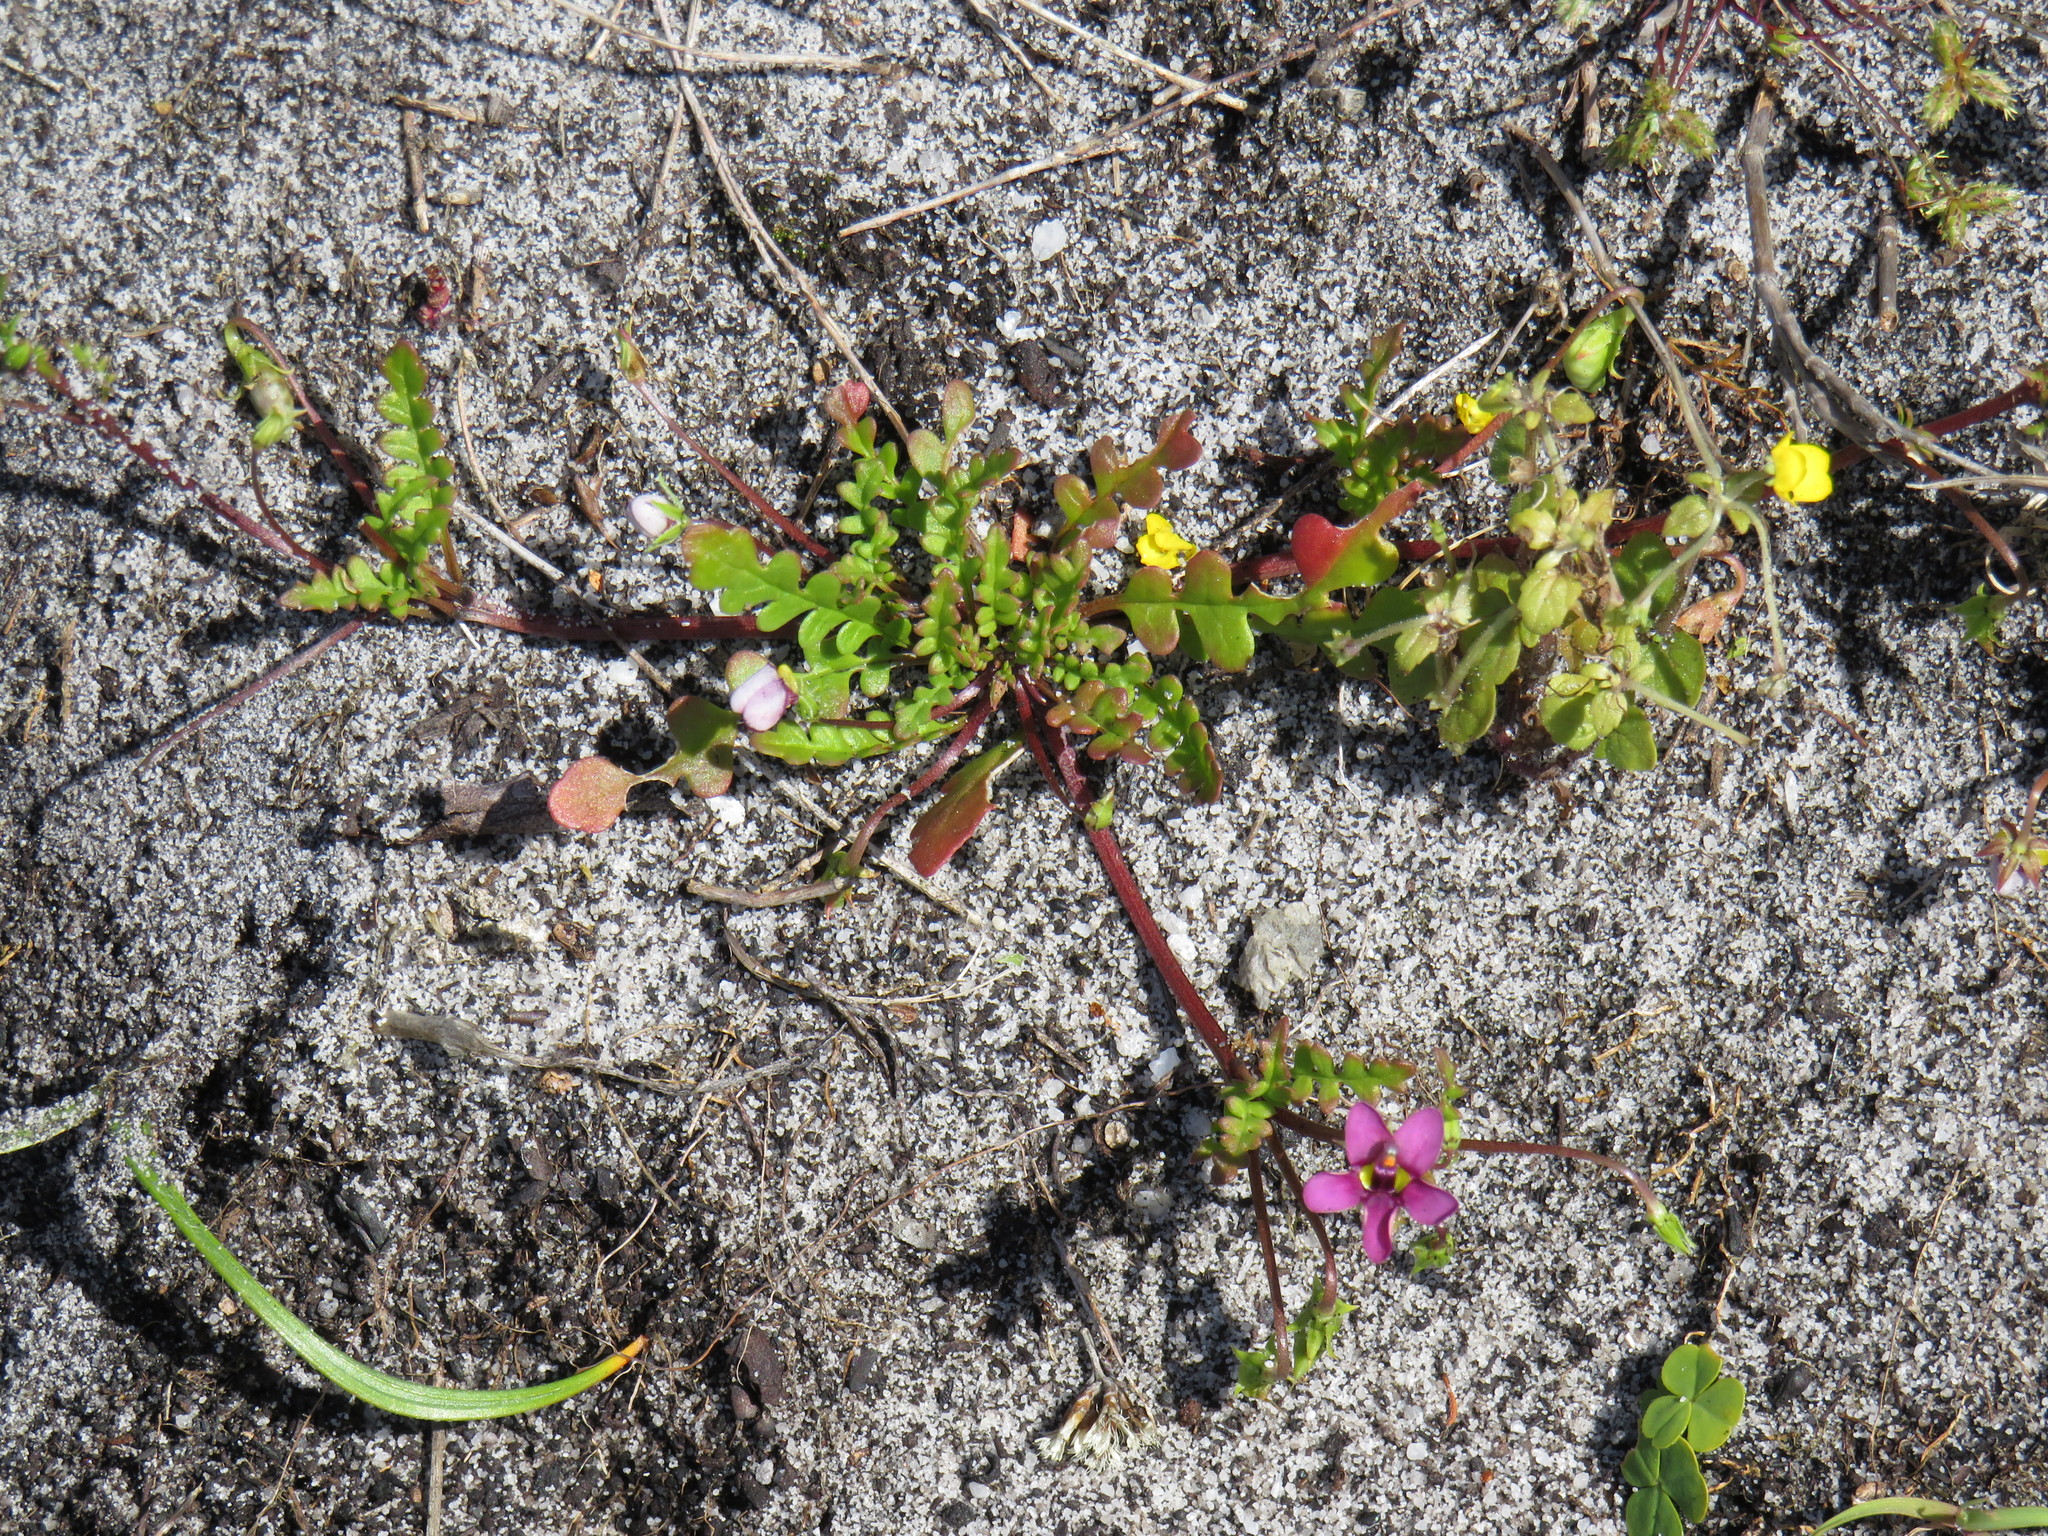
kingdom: Plantae
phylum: Tracheophyta
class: Magnoliopsida
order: Lamiales
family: Scrophulariaceae
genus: Hemimeris
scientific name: Hemimeris racemosa
